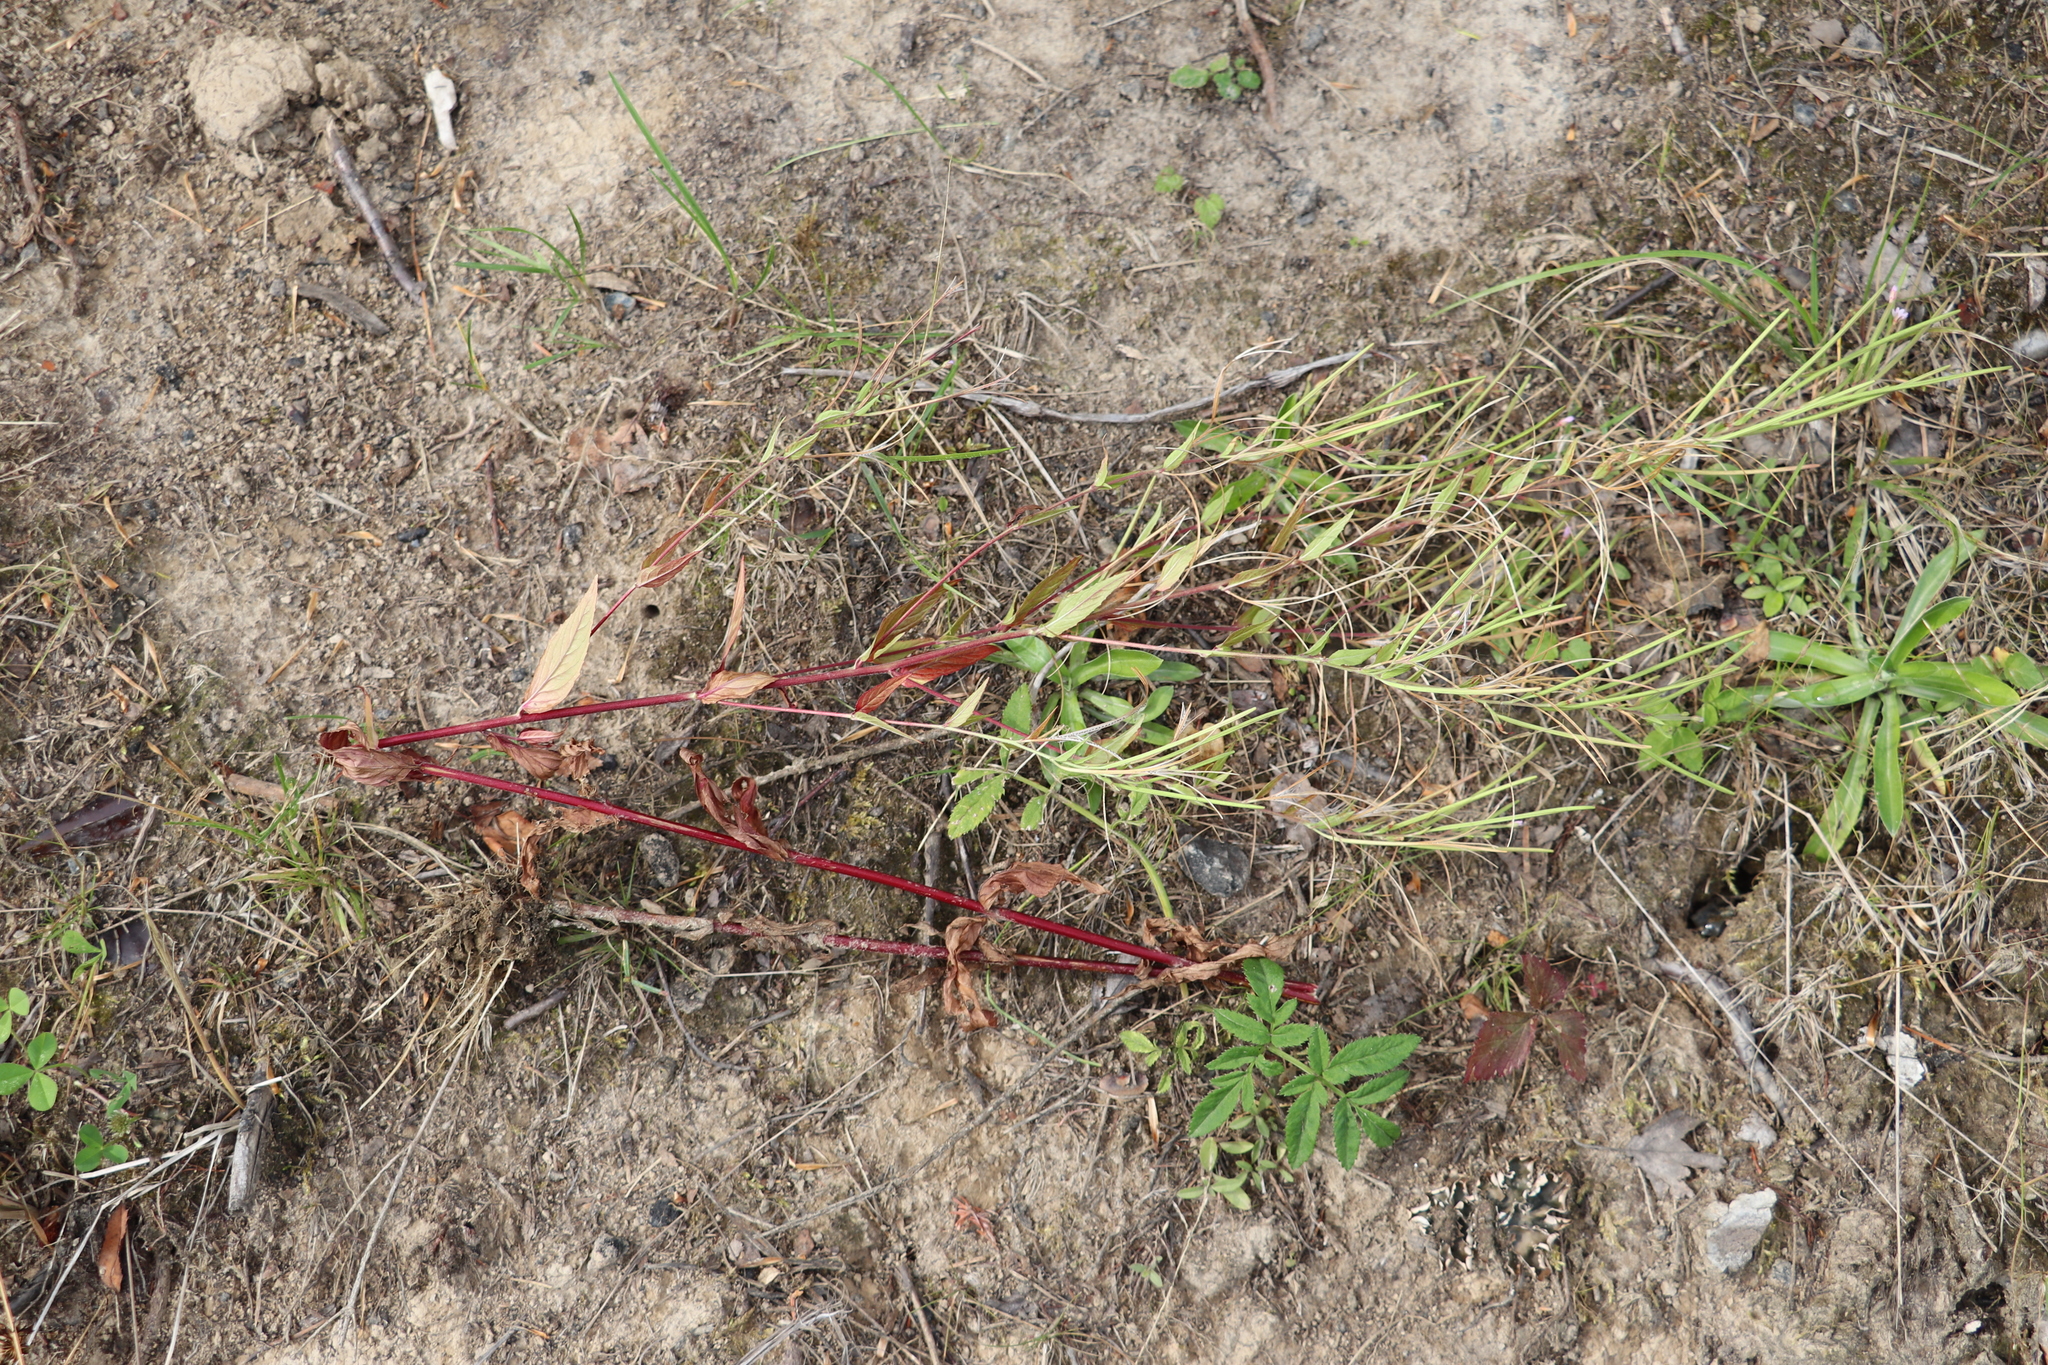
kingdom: Plantae
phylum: Tracheophyta
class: Magnoliopsida
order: Myrtales
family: Onagraceae
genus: Epilobium
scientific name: Epilobium pseudorubescens
